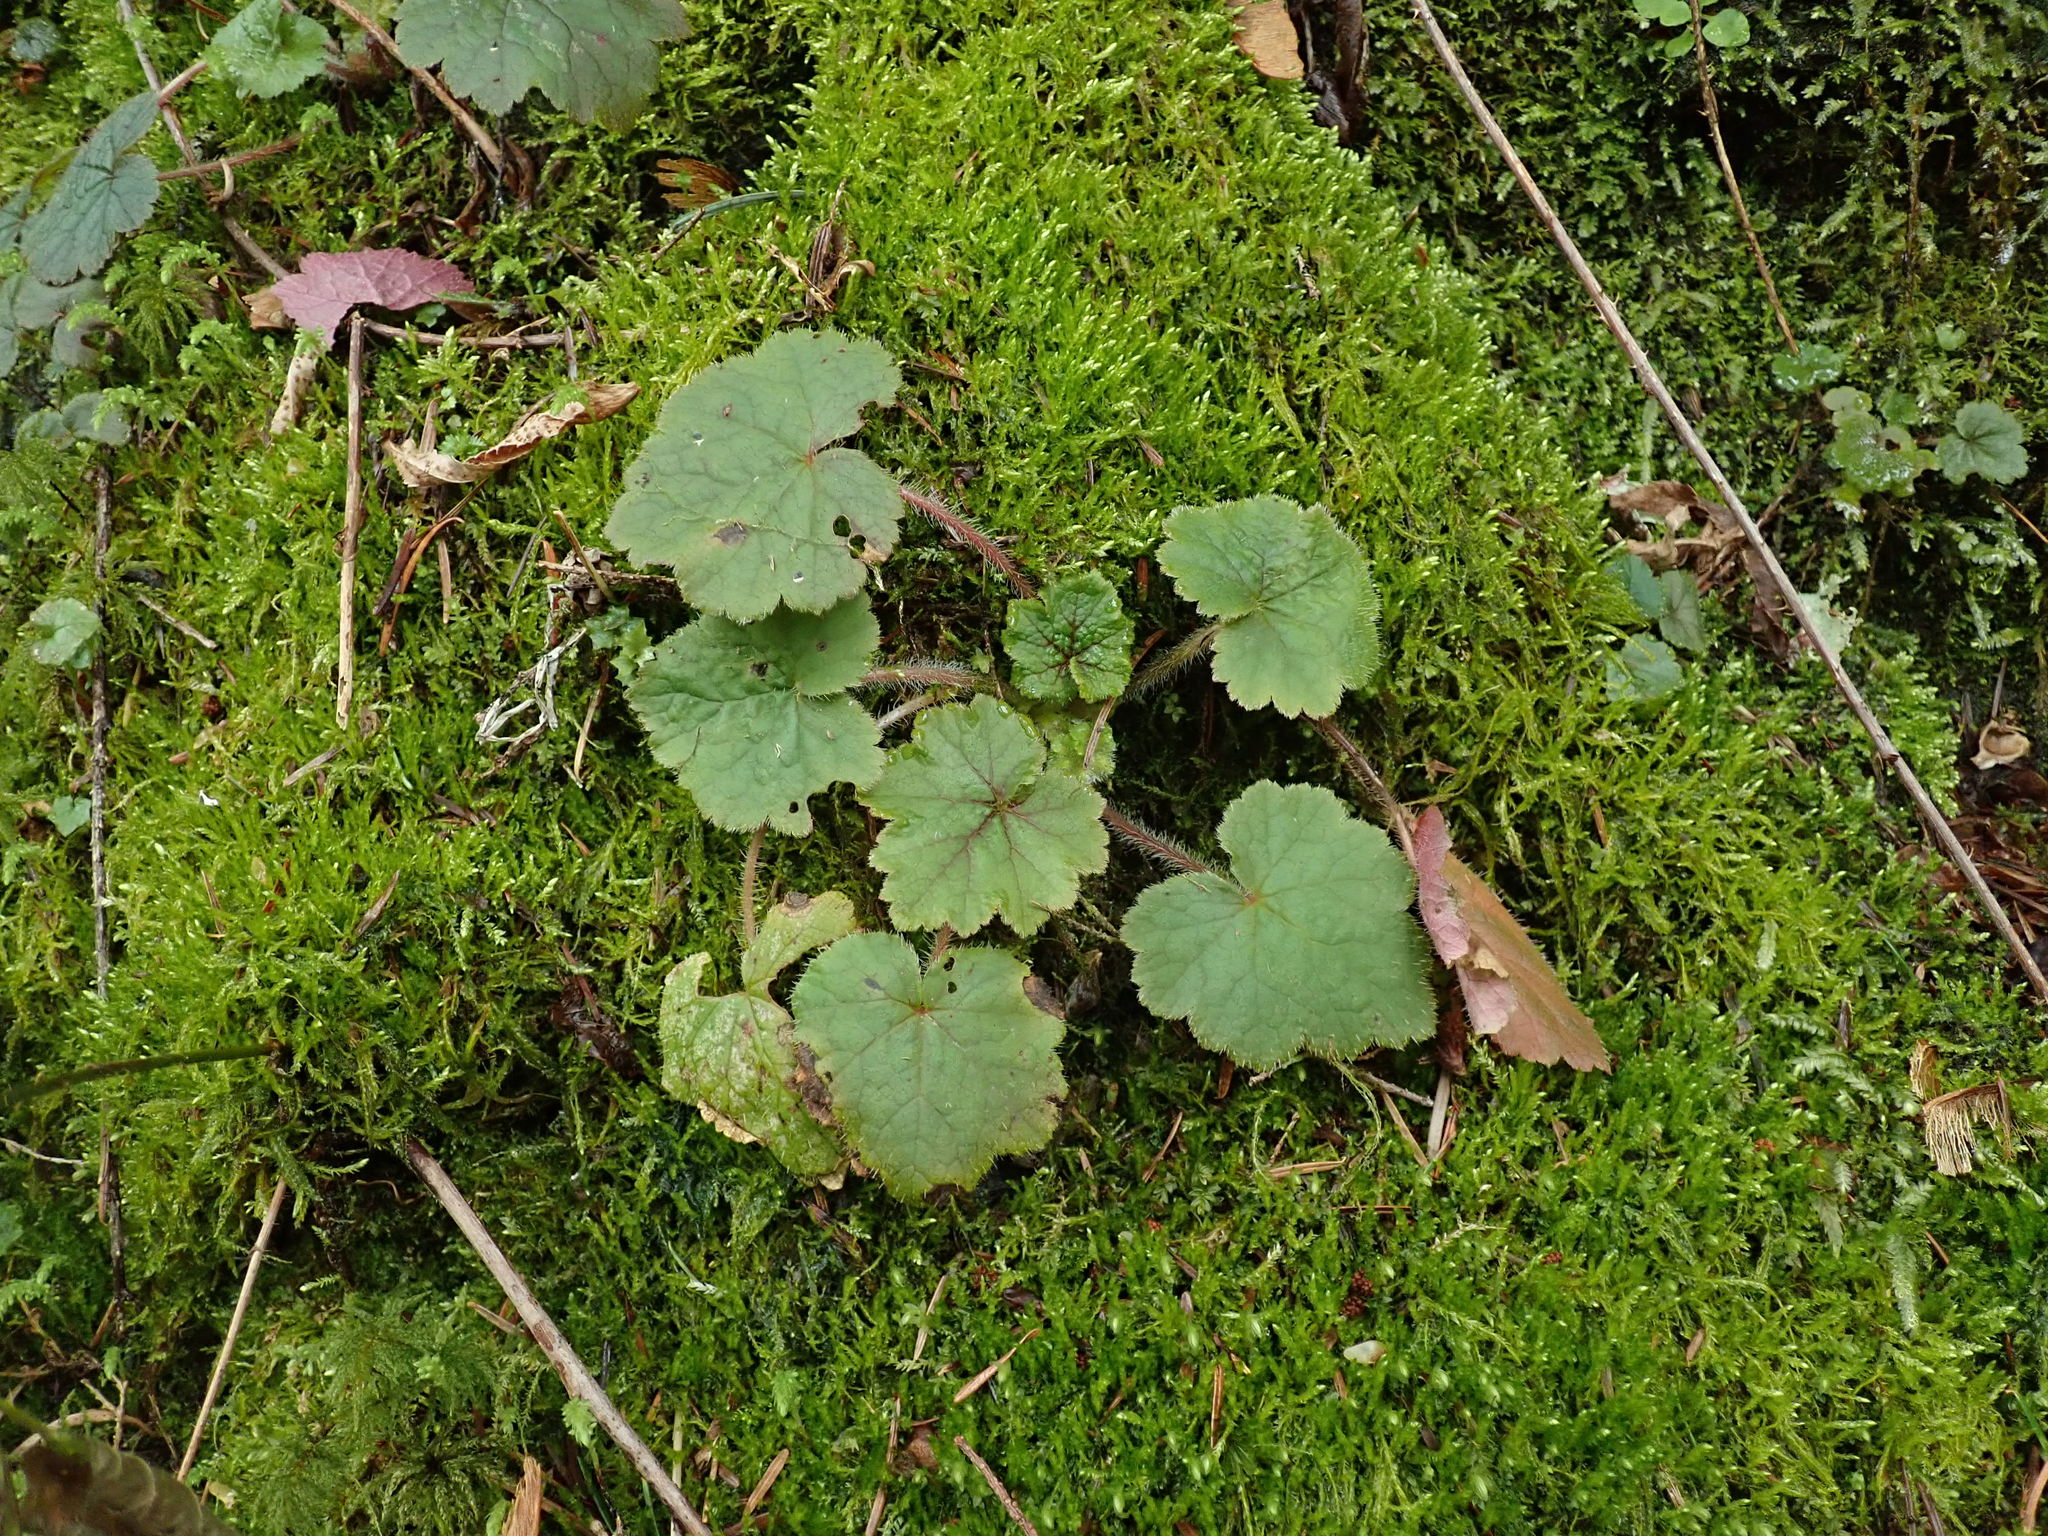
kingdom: Plantae
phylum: Tracheophyta
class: Magnoliopsida
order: Saxifragales
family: Saxifragaceae
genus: Tellima
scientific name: Tellima grandiflora
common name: Fringecups
